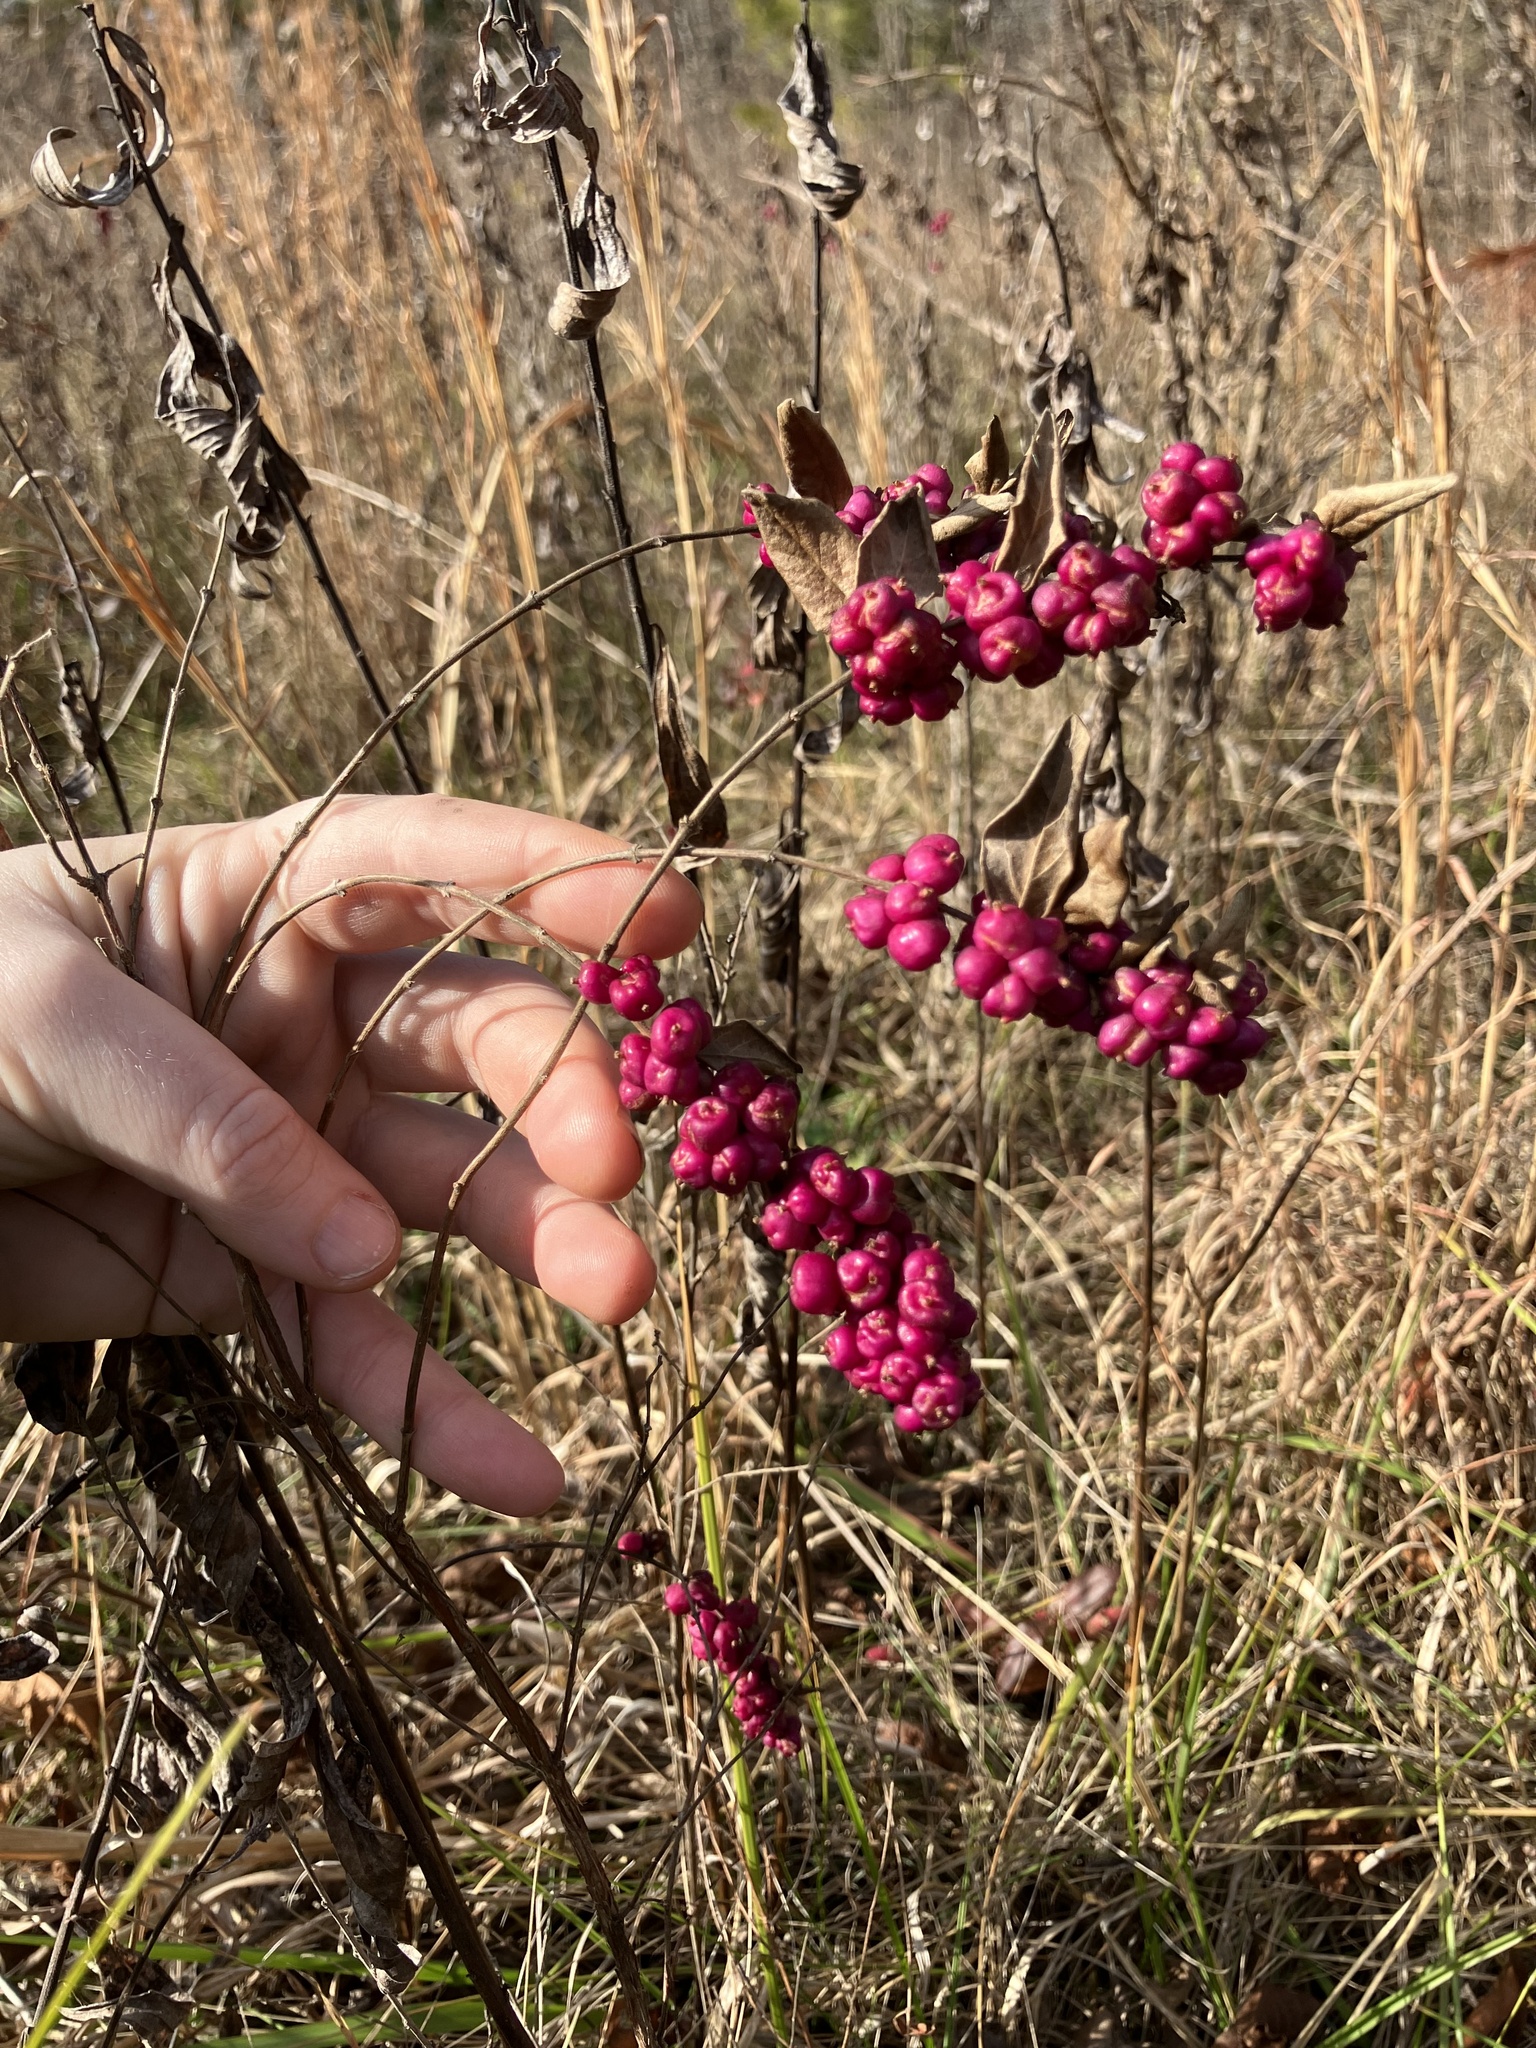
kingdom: Plantae
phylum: Tracheophyta
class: Magnoliopsida
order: Dipsacales
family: Caprifoliaceae
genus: Symphoricarpos
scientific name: Symphoricarpos orbiculatus
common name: Coralberry
